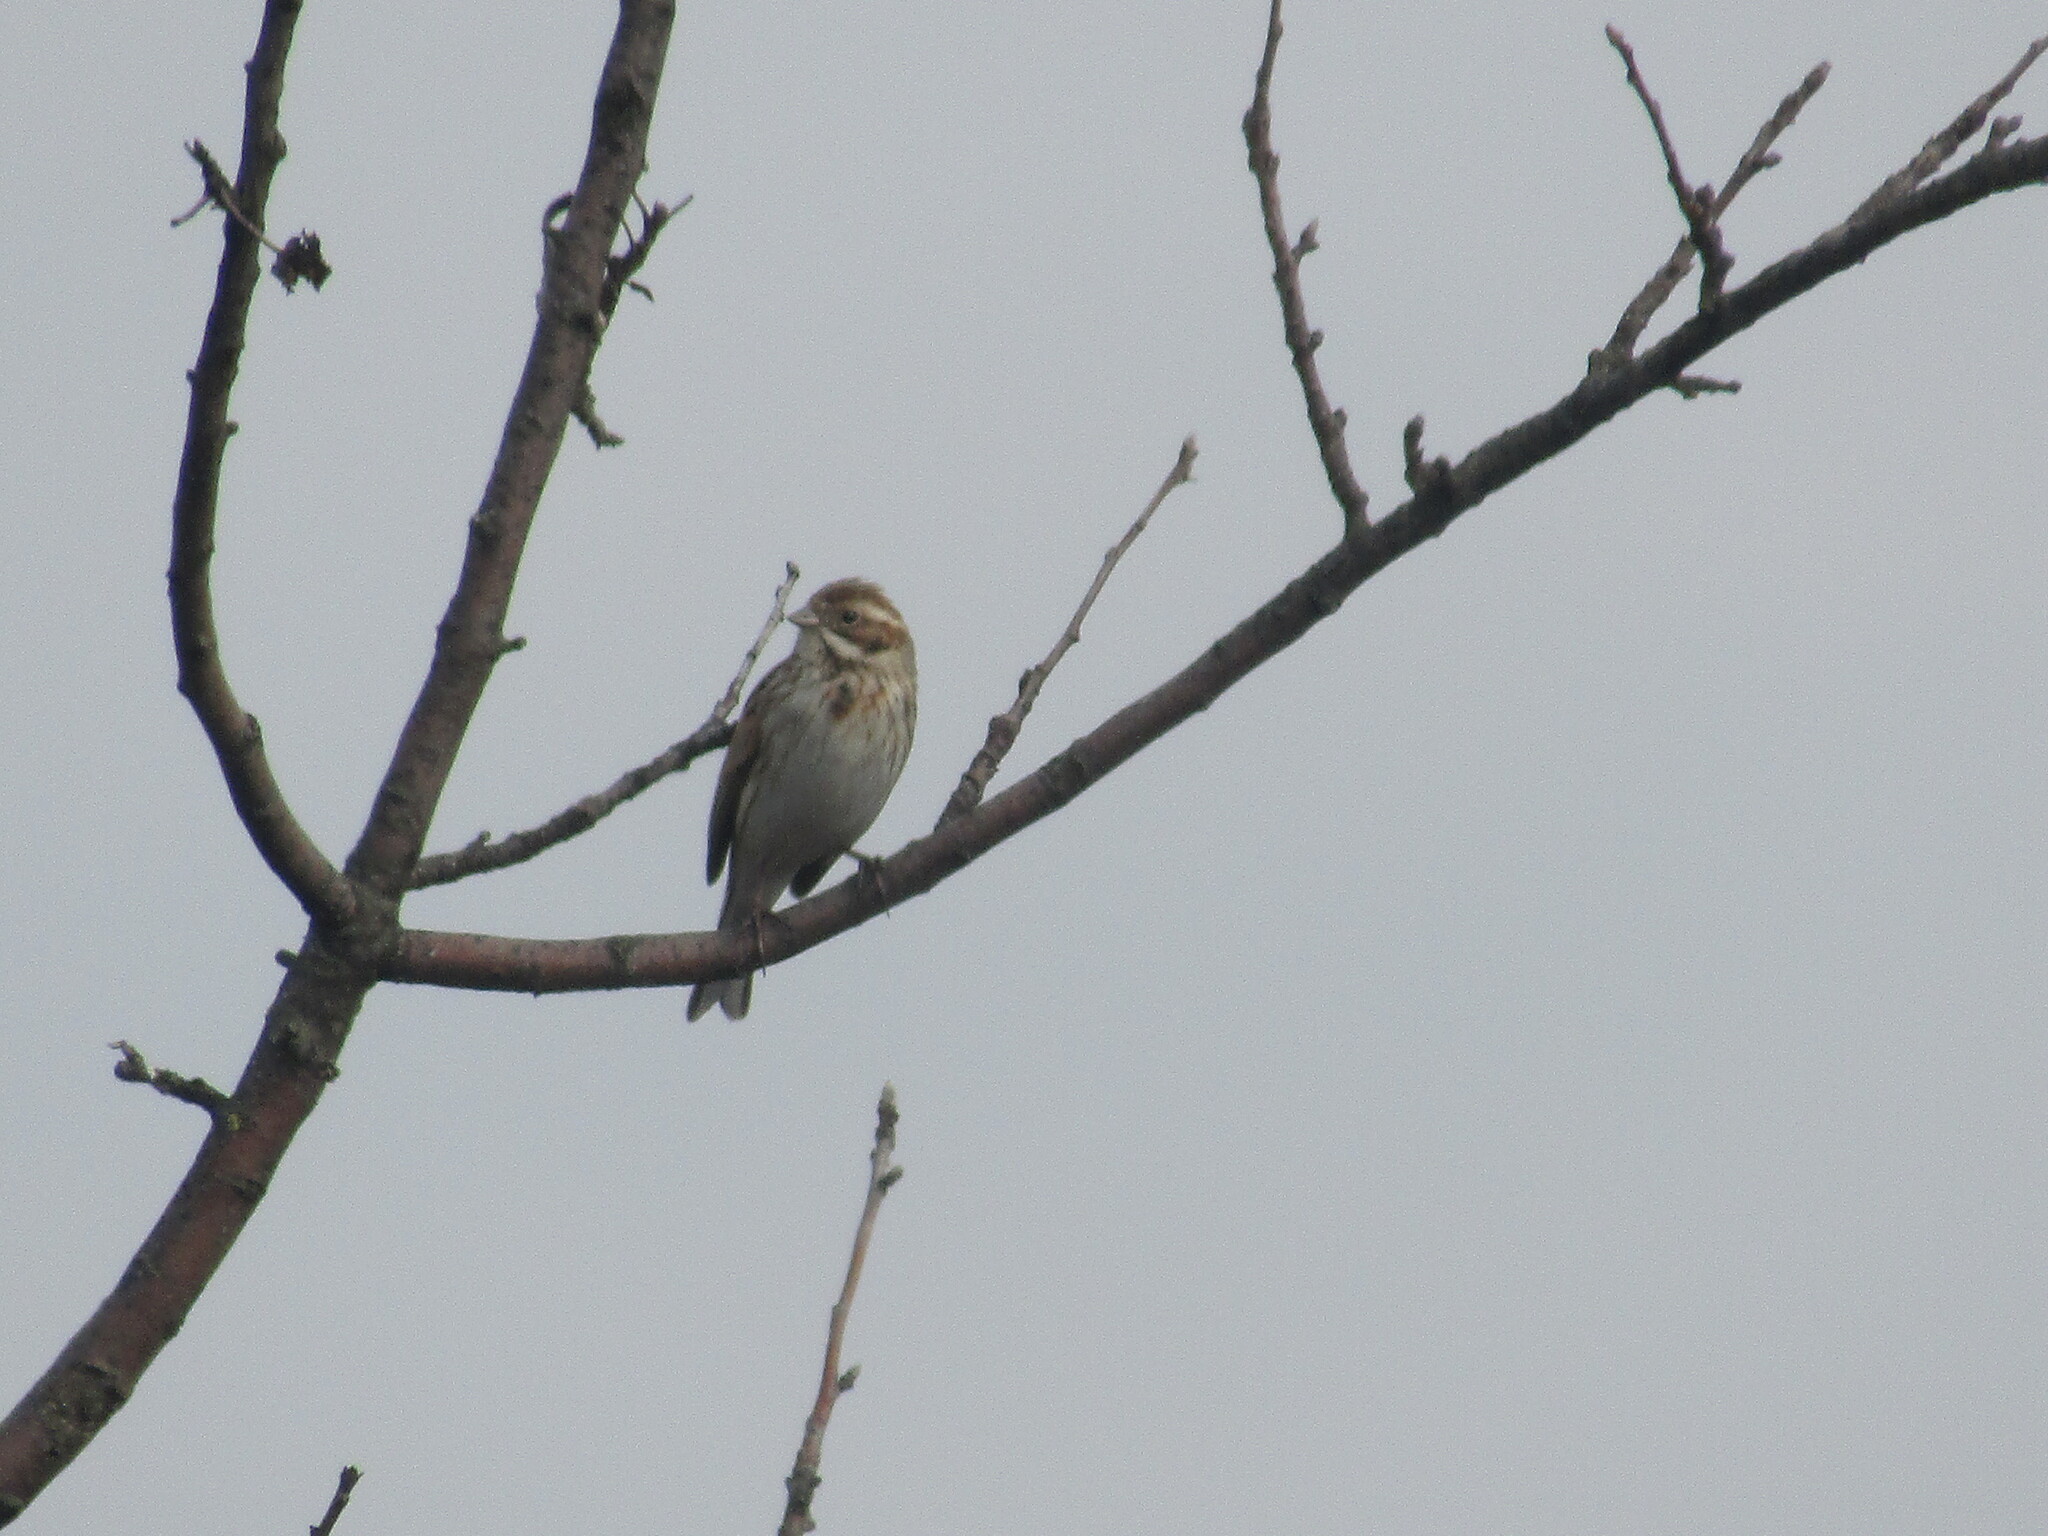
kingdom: Animalia
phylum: Chordata
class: Aves
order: Passeriformes
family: Emberizidae
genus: Emberiza
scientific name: Emberiza schoeniclus
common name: Reed bunting
